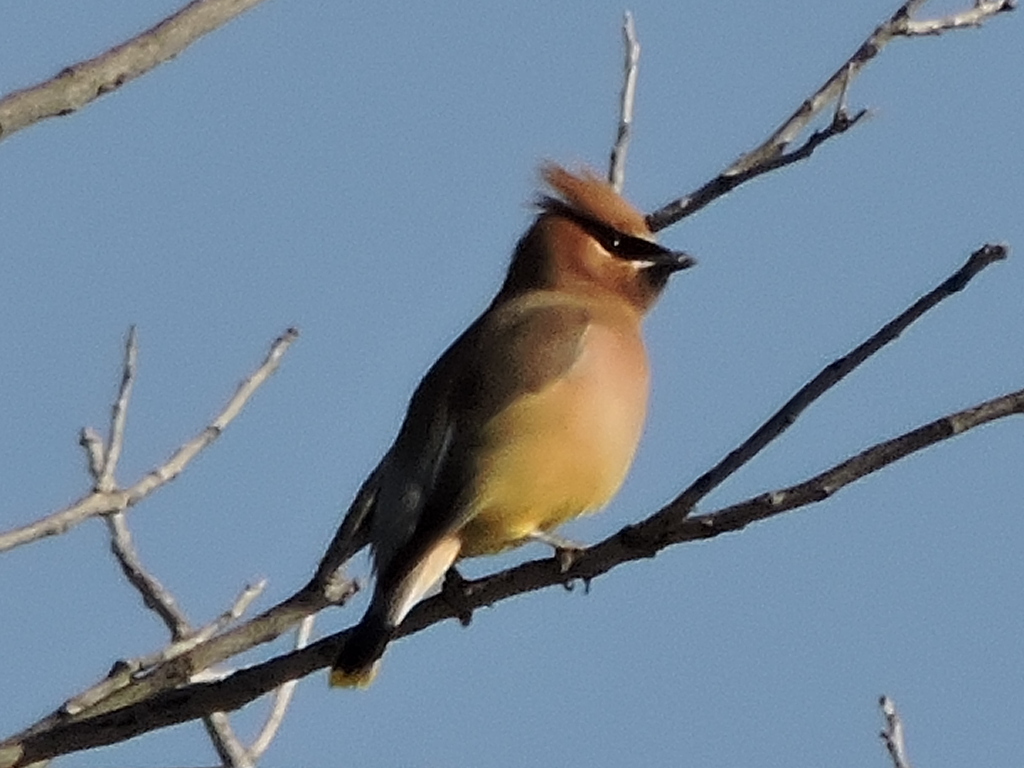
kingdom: Animalia
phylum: Chordata
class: Aves
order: Passeriformes
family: Bombycillidae
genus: Bombycilla
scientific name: Bombycilla cedrorum
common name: Cedar waxwing
